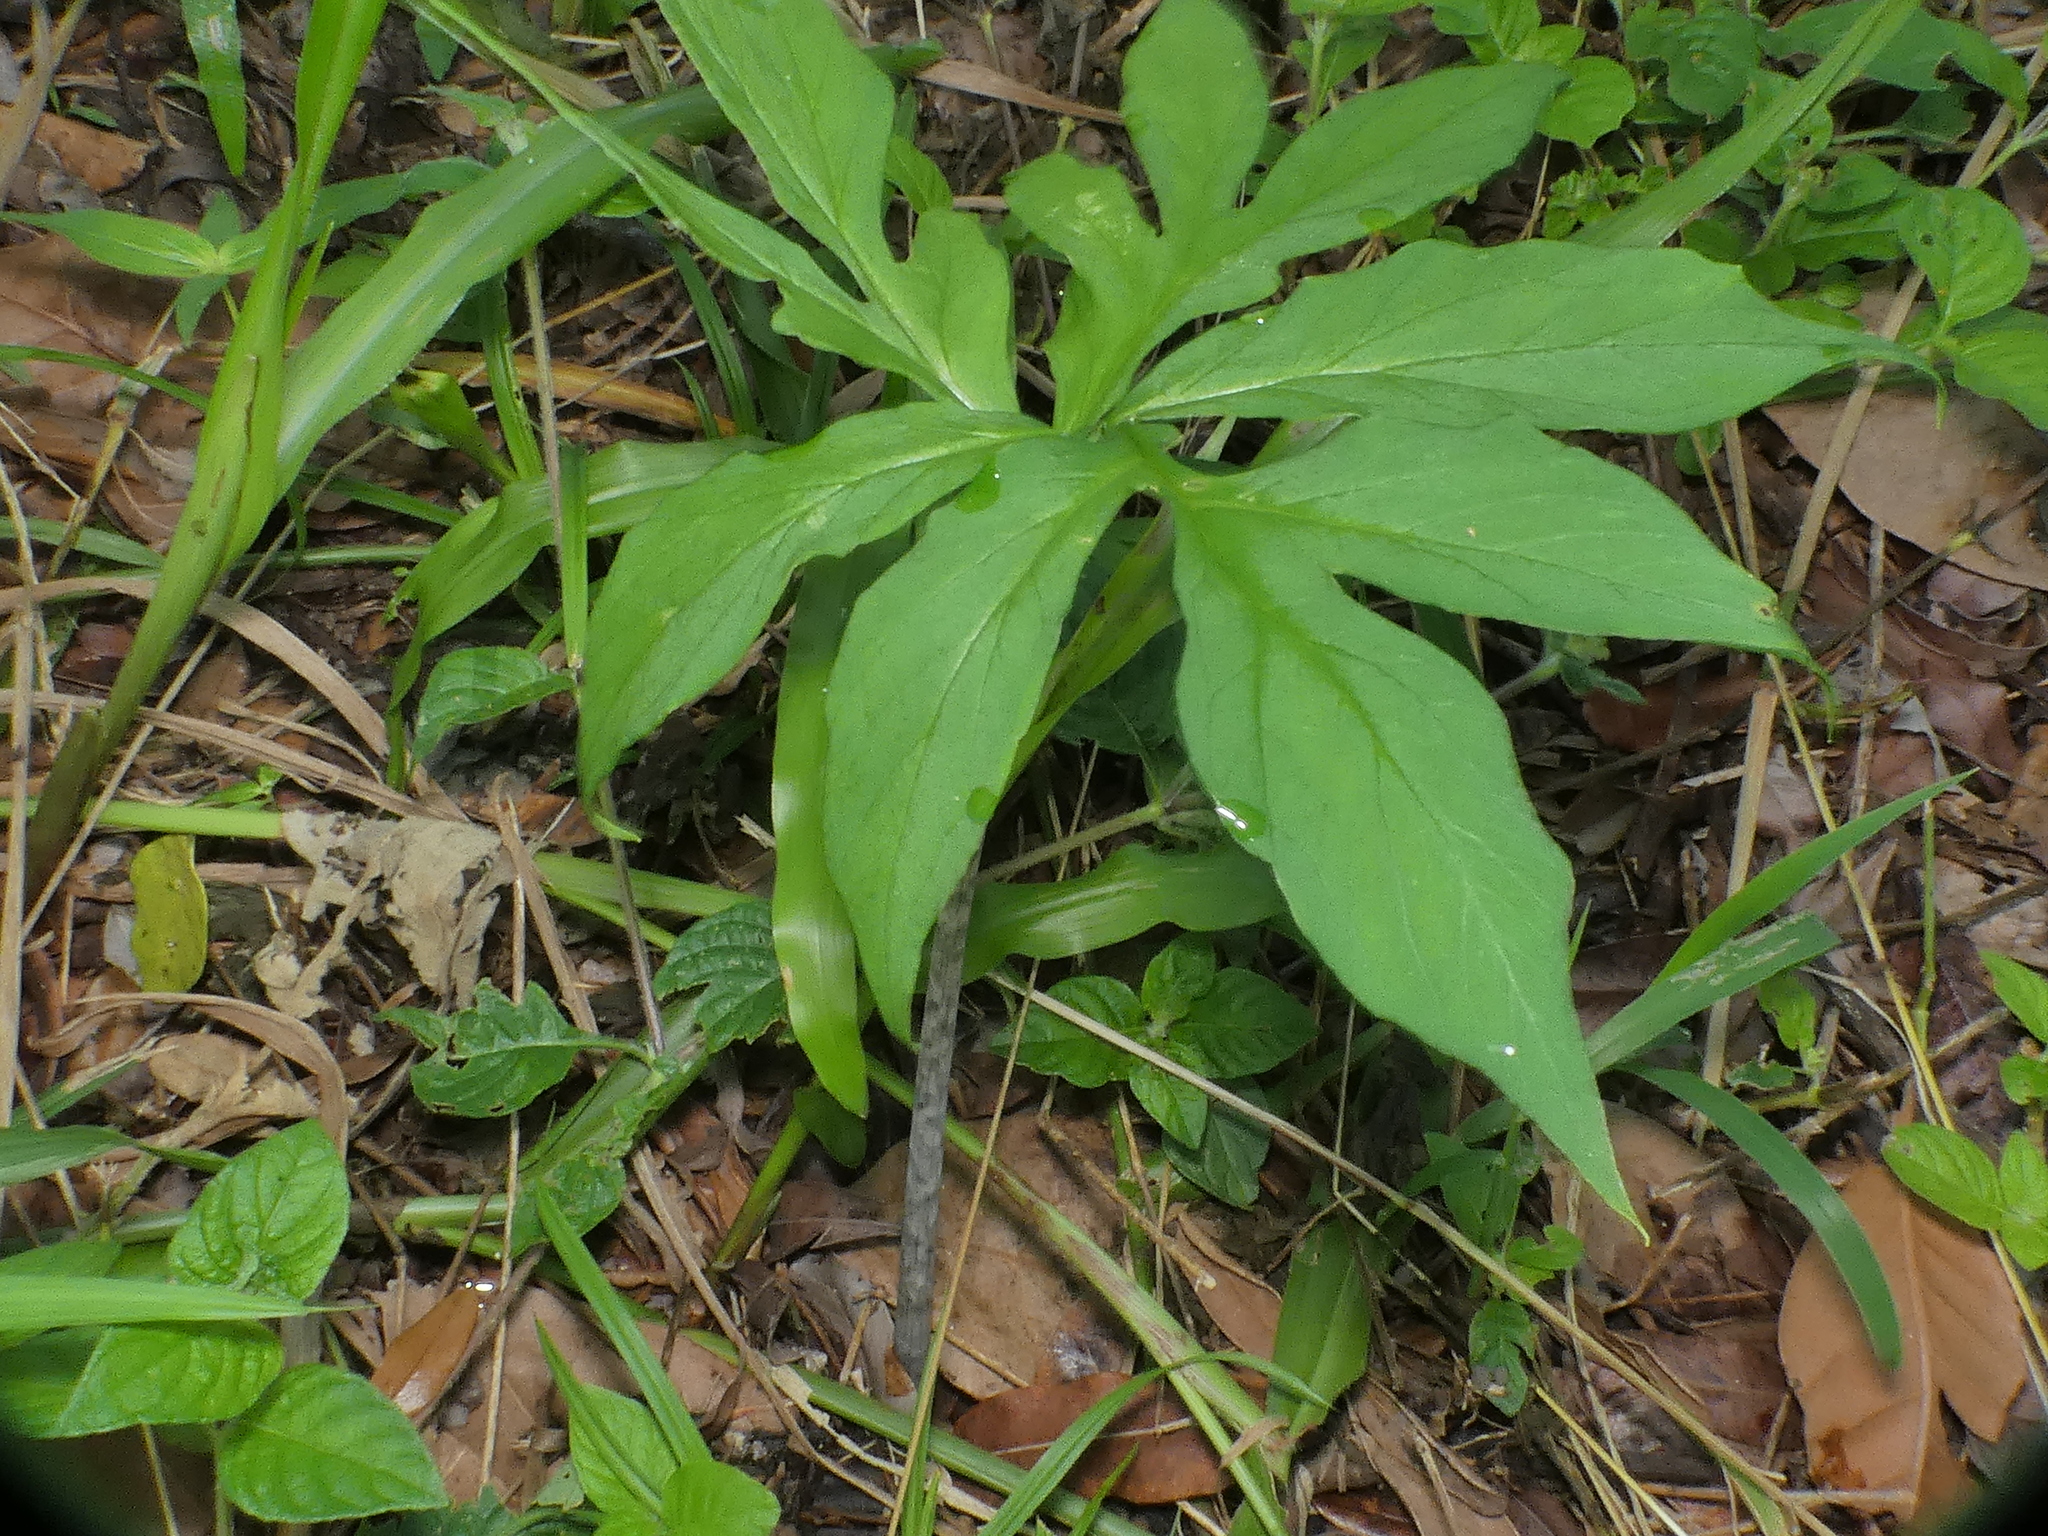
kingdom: Plantae
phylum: Tracheophyta
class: Liliopsida
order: Alismatales
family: Araceae
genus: Taccarum
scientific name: Taccarum ulei
